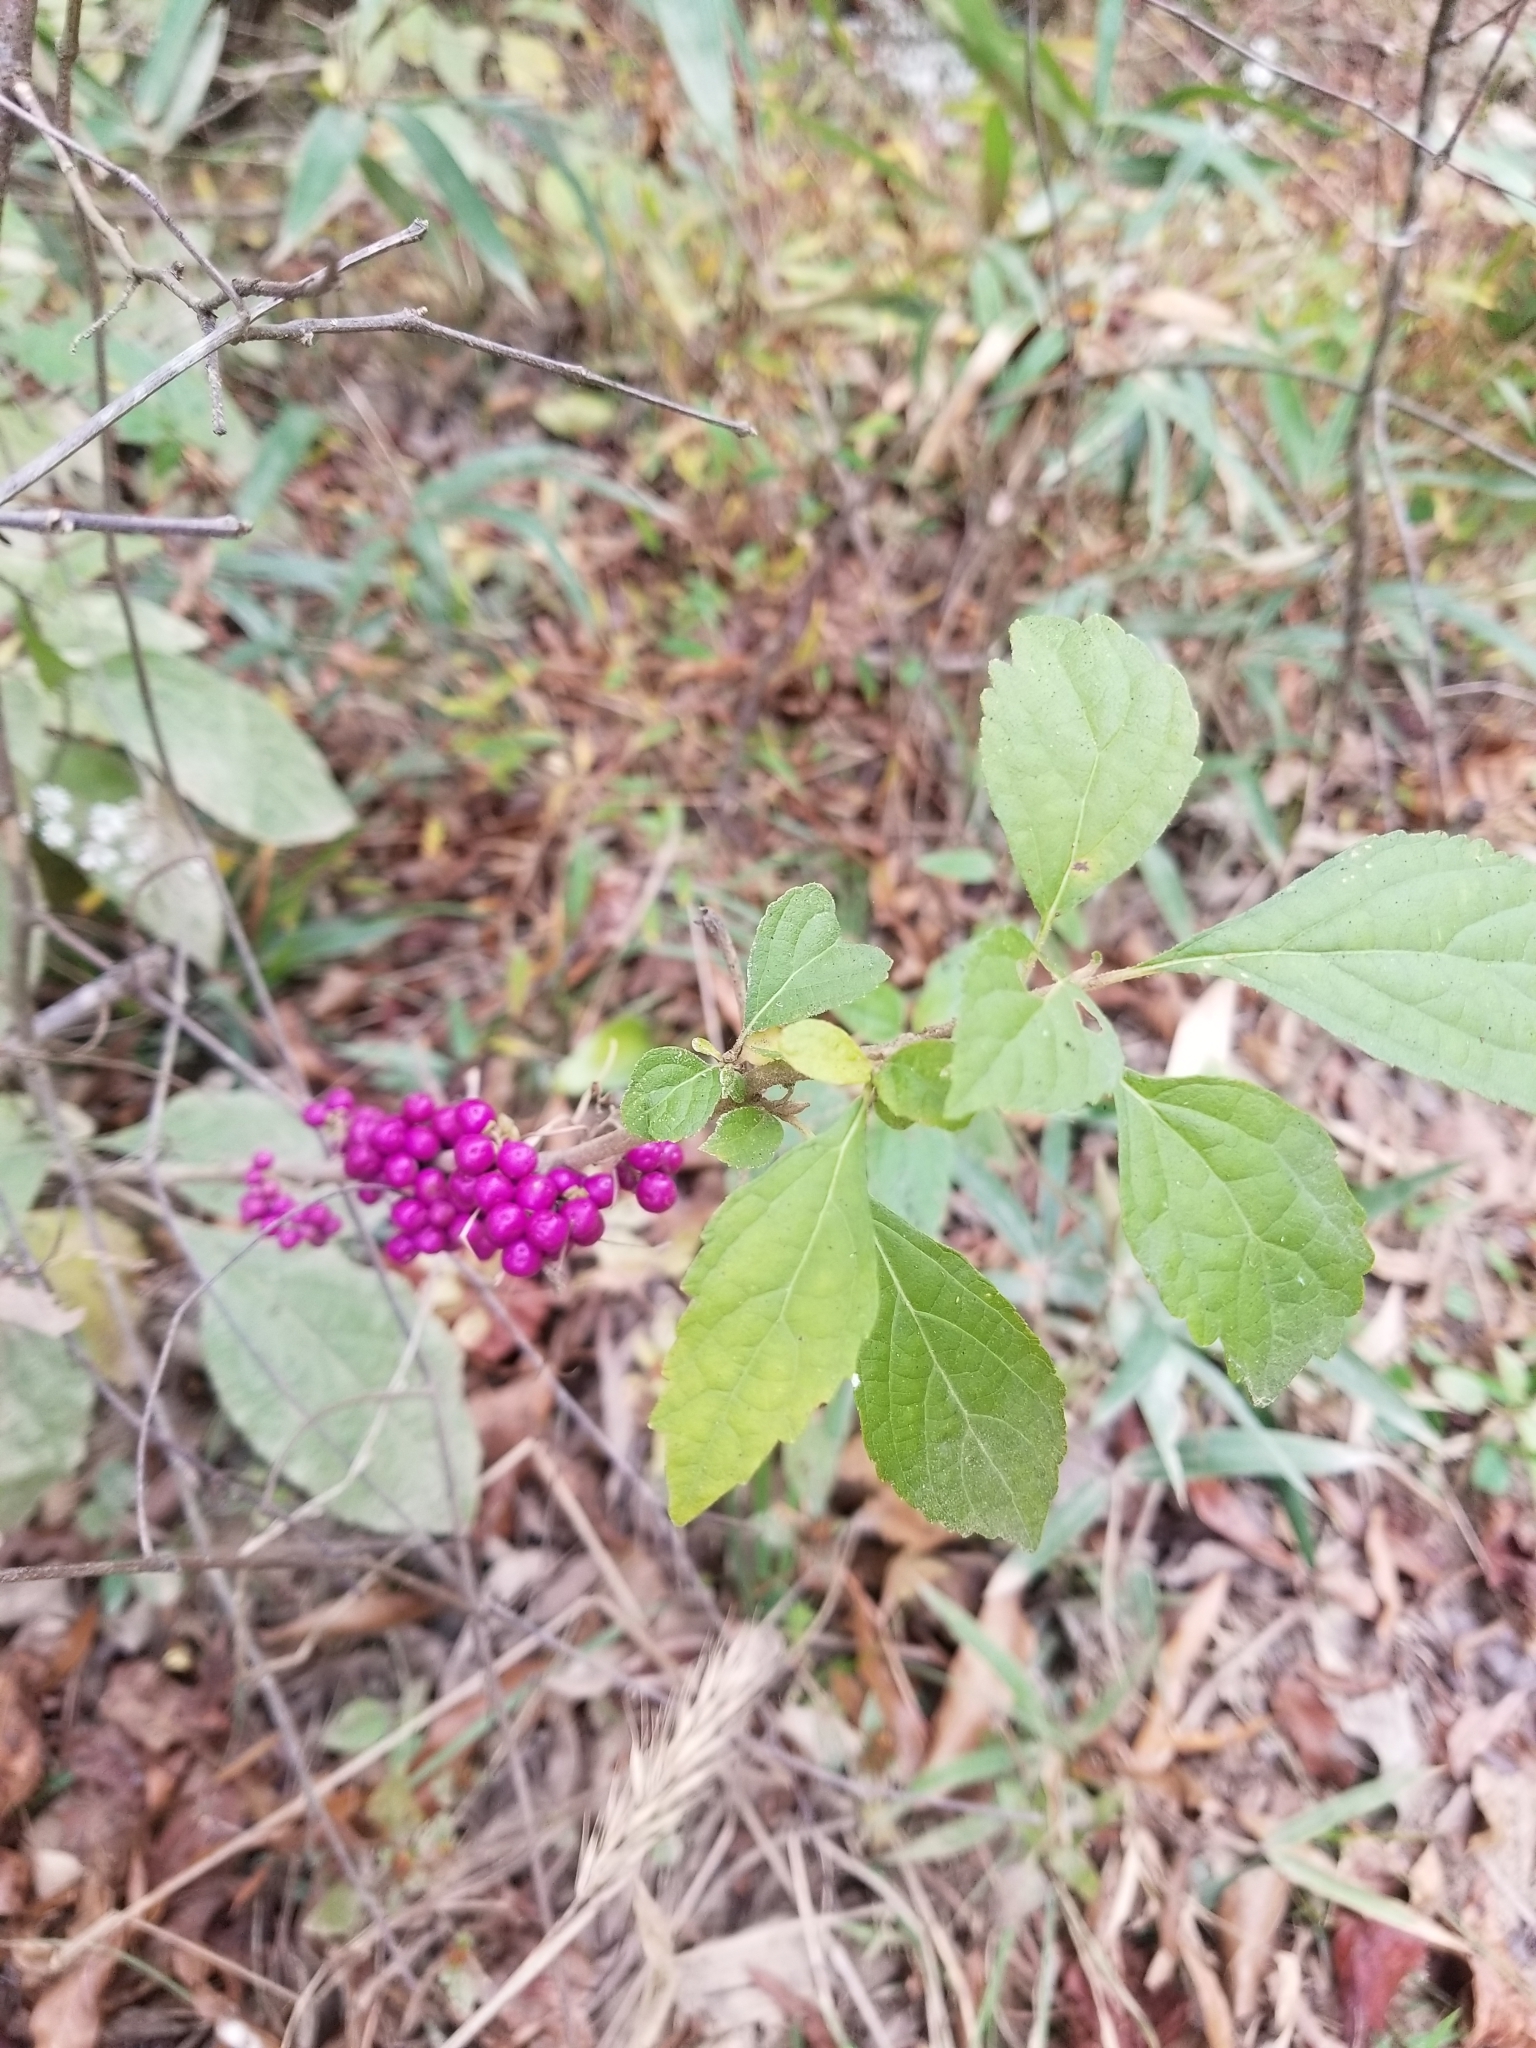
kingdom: Plantae
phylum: Tracheophyta
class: Magnoliopsida
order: Lamiales
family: Lamiaceae
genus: Callicarpa
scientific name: Callicarpa americana
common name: American beautyberry
